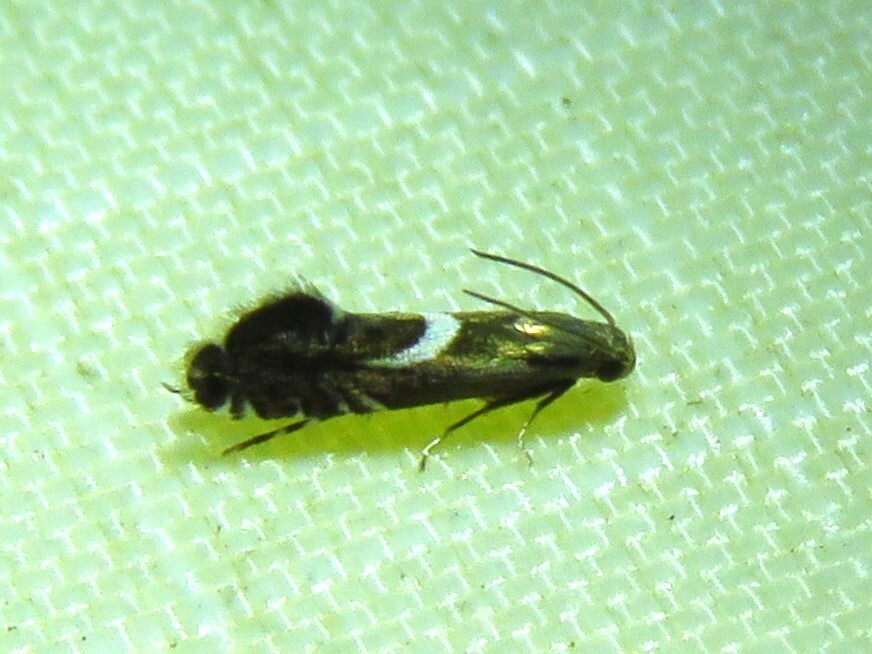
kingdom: Animalia
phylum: Arthropoda
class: Insecta
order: Lepidoptera
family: Glyphipterigidae
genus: Glyphipterix
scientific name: Glyphipterix Diploschizia impigritella
